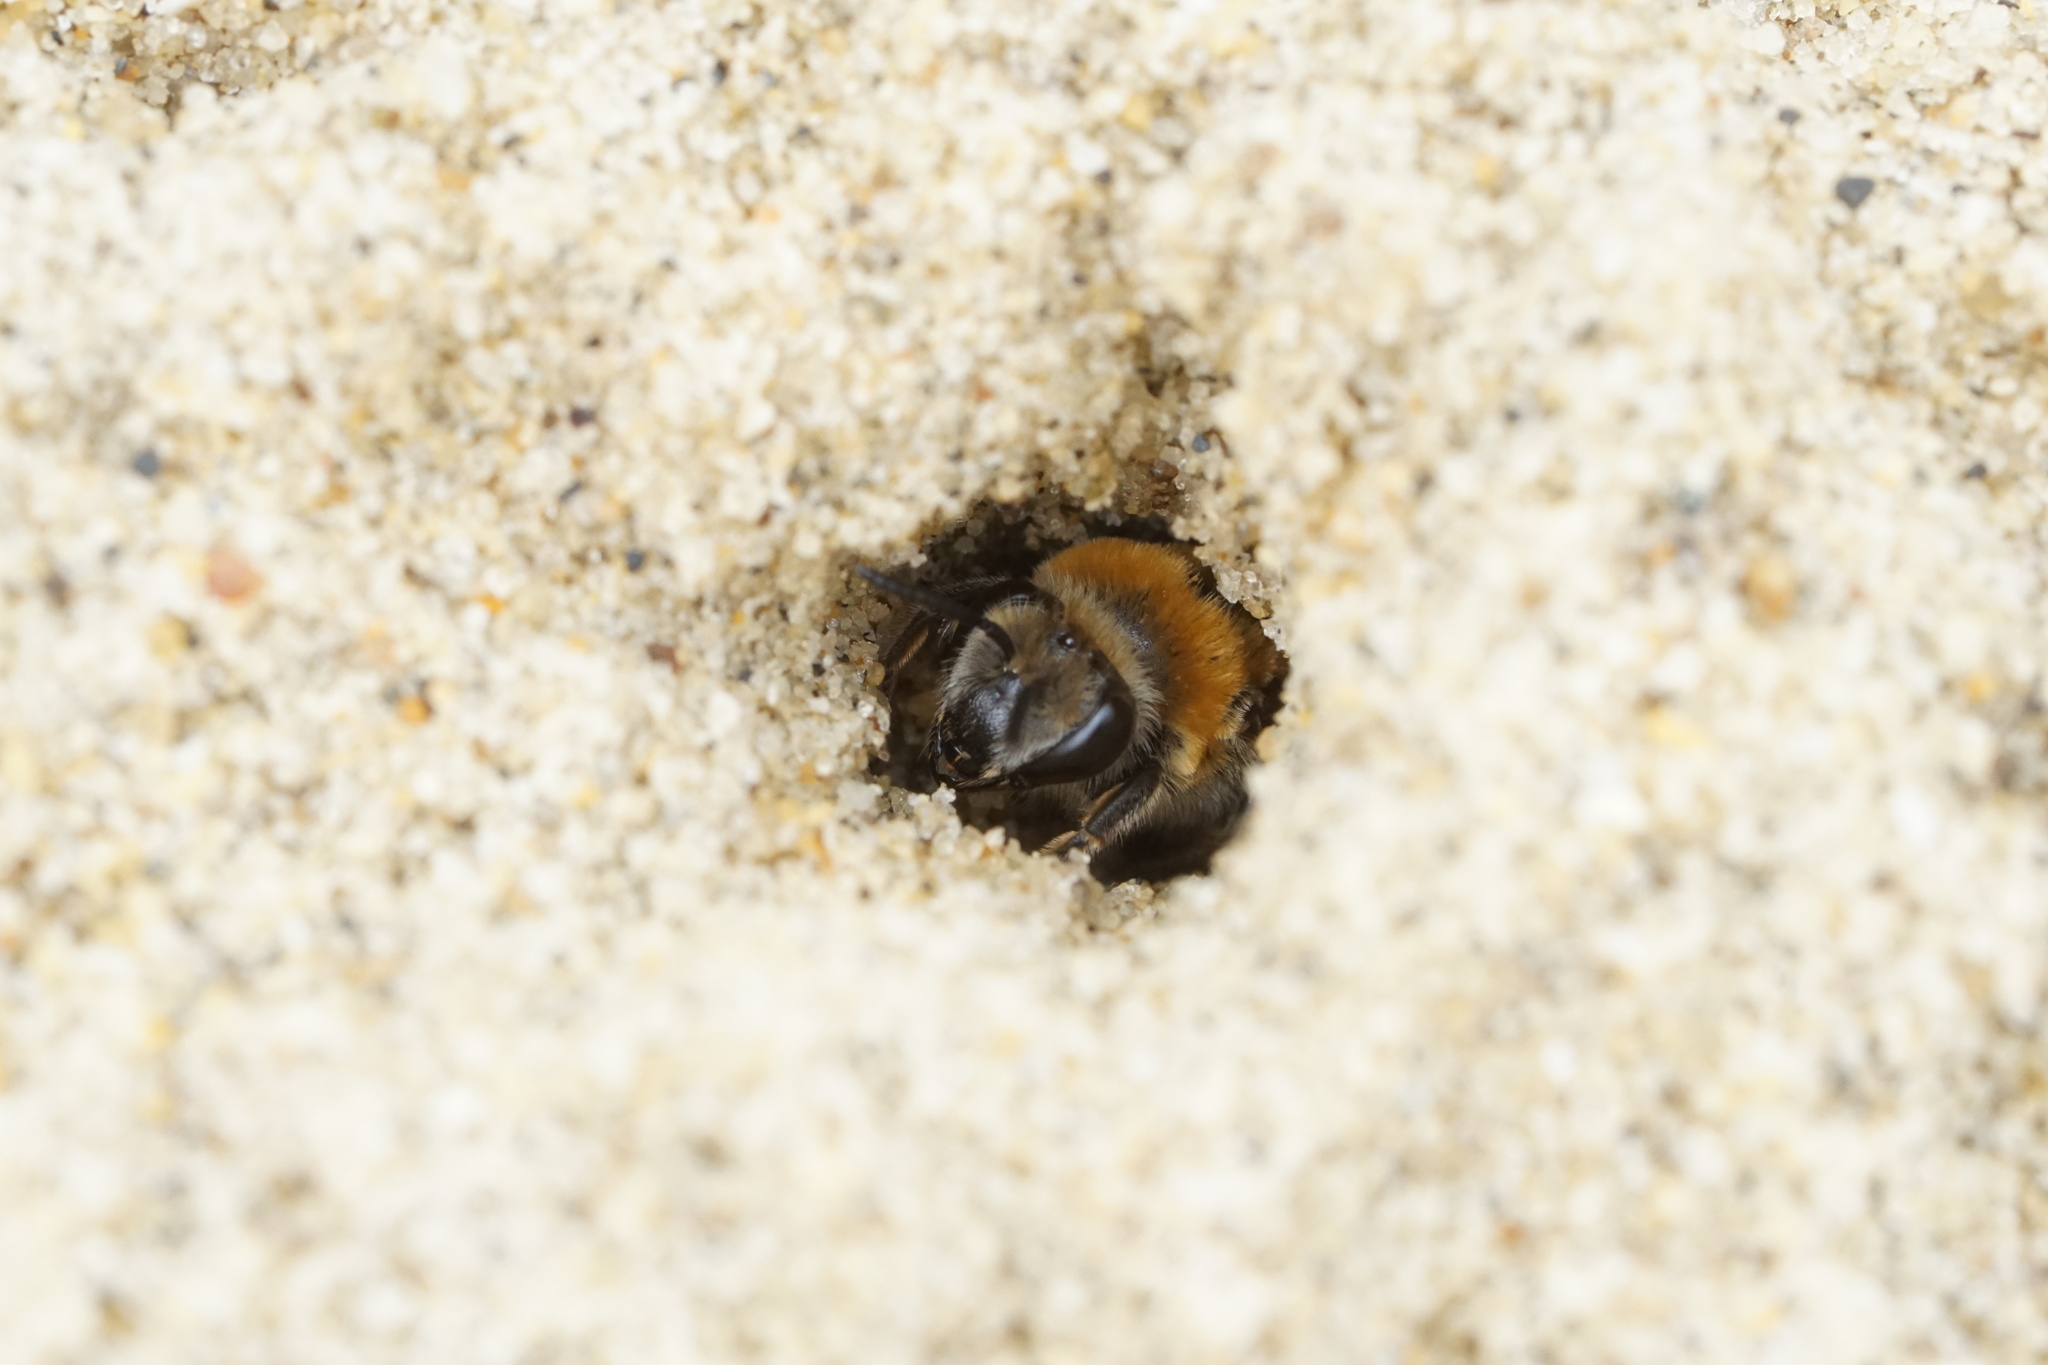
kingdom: Animalia
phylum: Arthropoda
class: Insecta
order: Hymenoptera
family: Colletidae
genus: Colletes
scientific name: Colletes thoracicus
